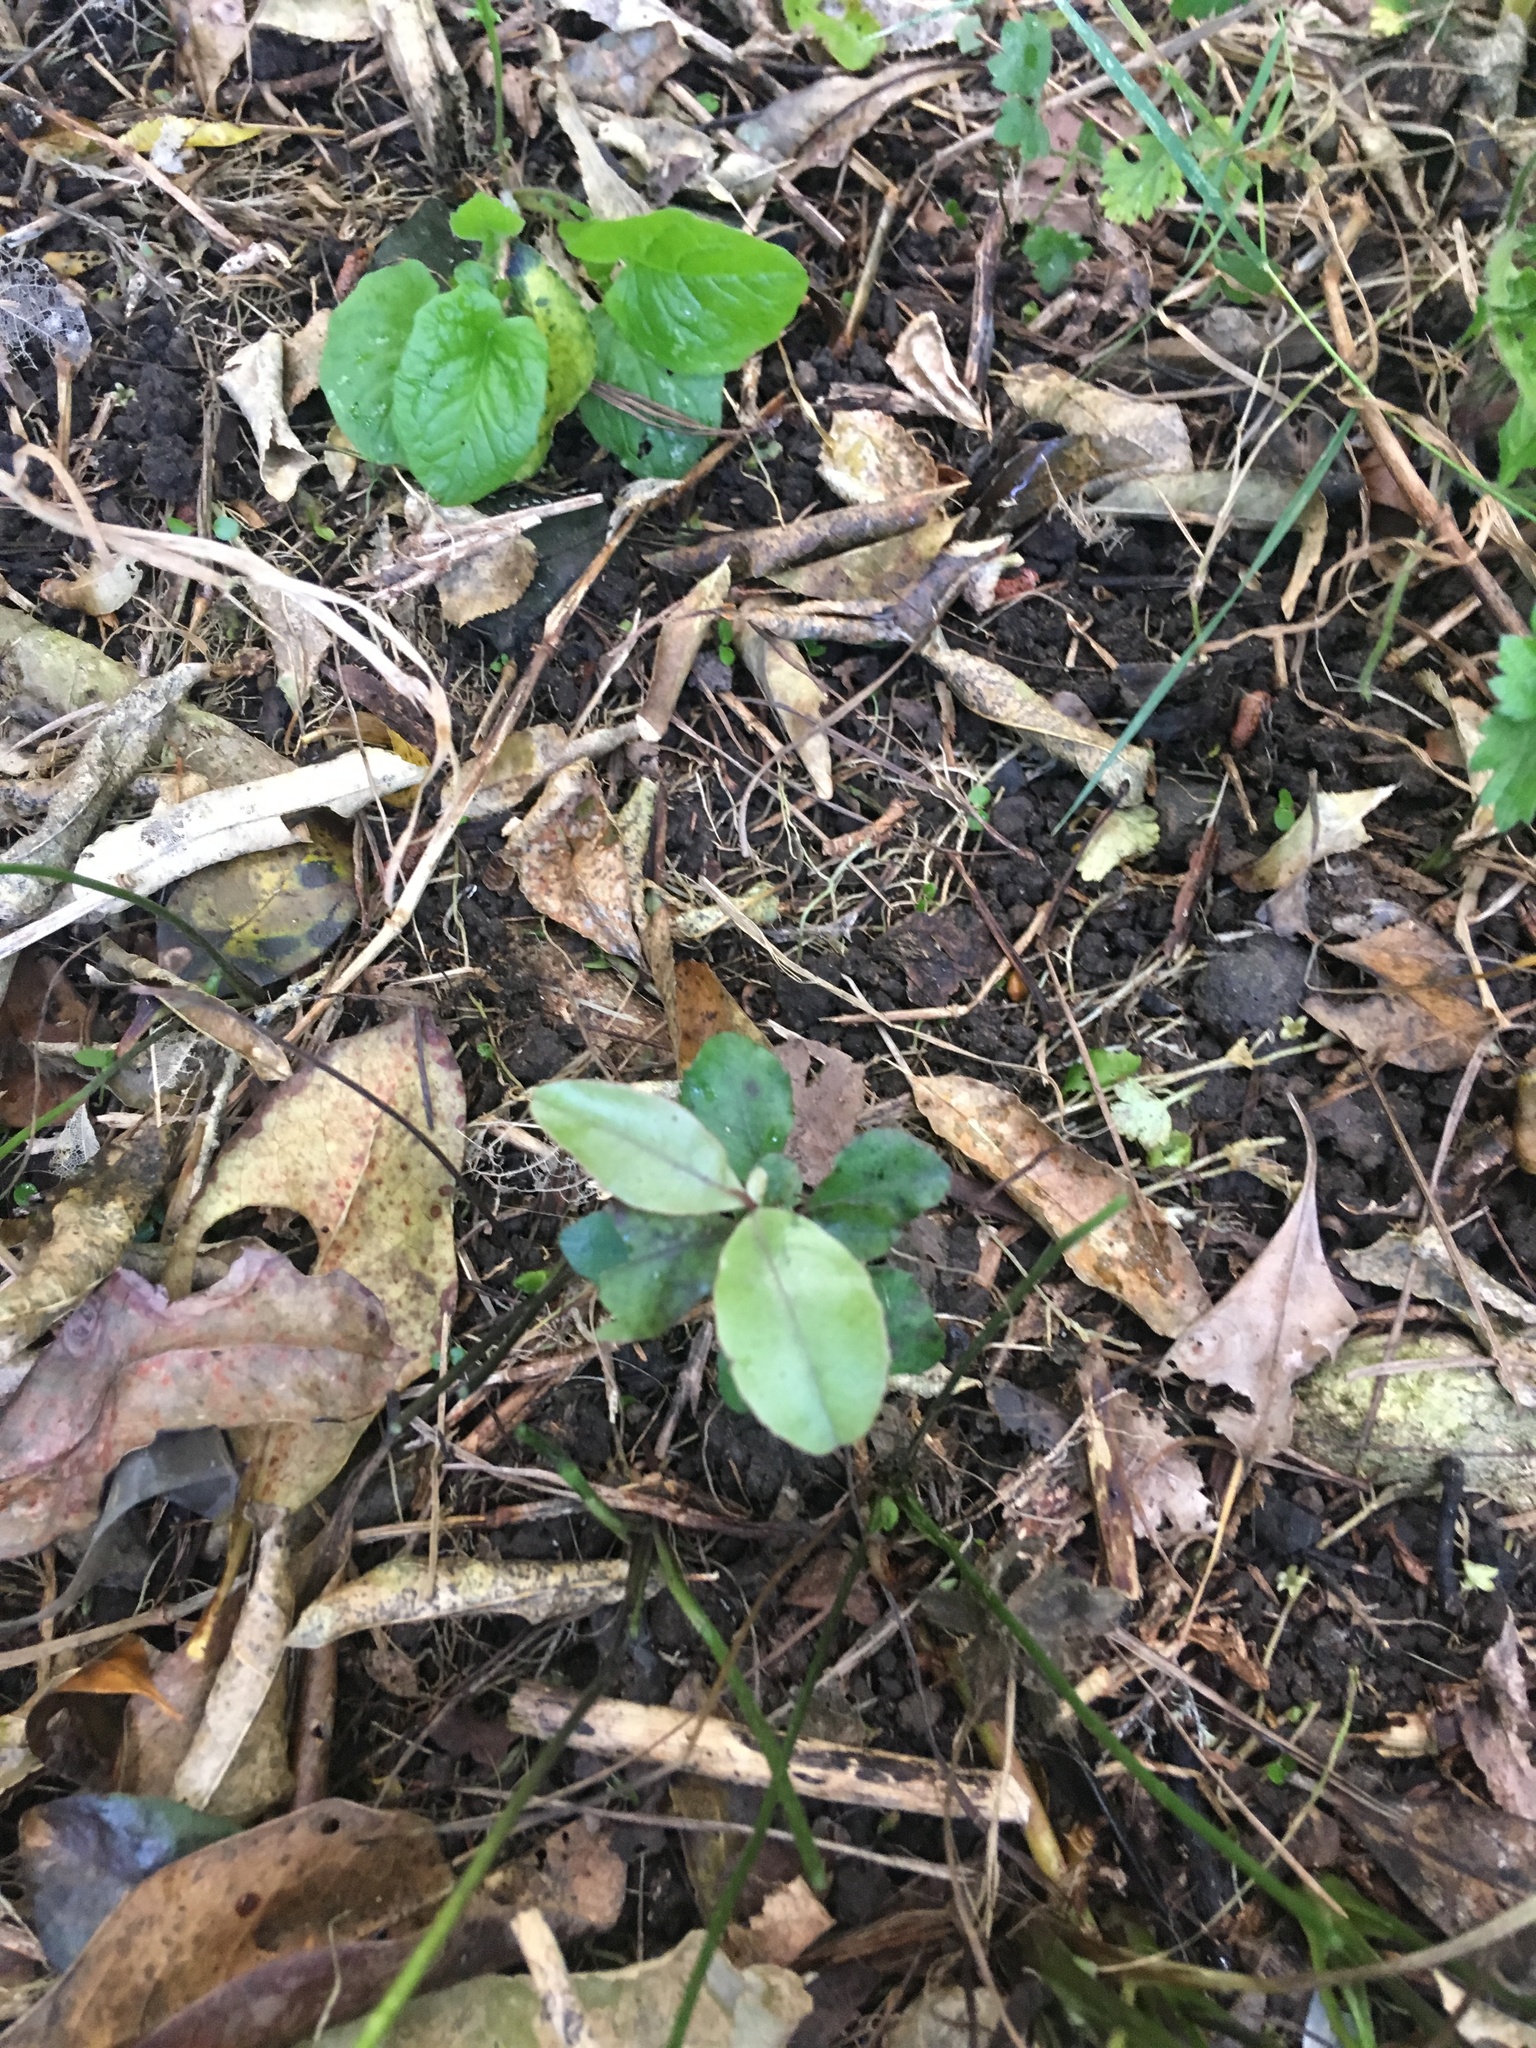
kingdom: Plantae
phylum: Tracheophyta
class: Magnoliopsida
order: Ericales
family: Primulaceae
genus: Myrsine
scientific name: Myrsine australis
